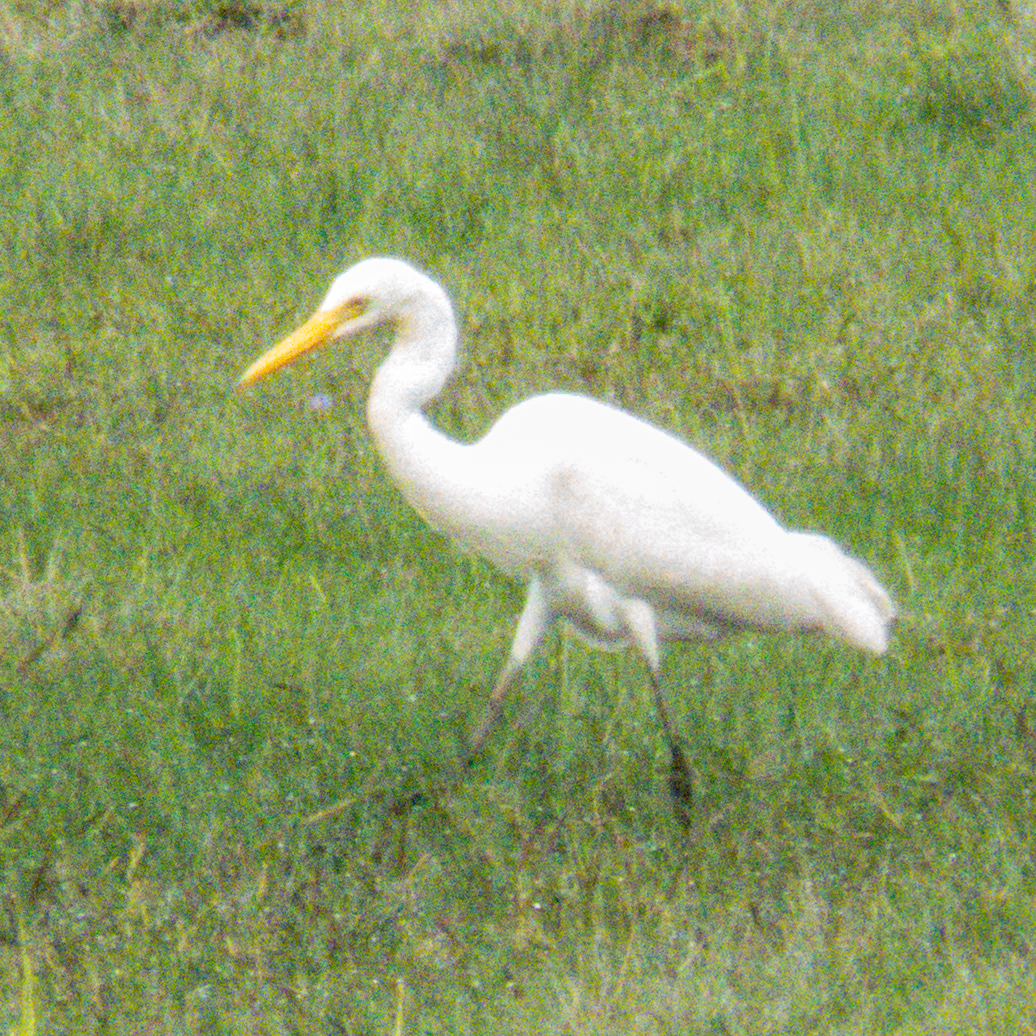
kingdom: Animalia
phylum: Chordata
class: Aves
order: Pelecaniformes
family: Ardeidae
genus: Egretta
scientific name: Egretta intermedia
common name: Intermediate egret
